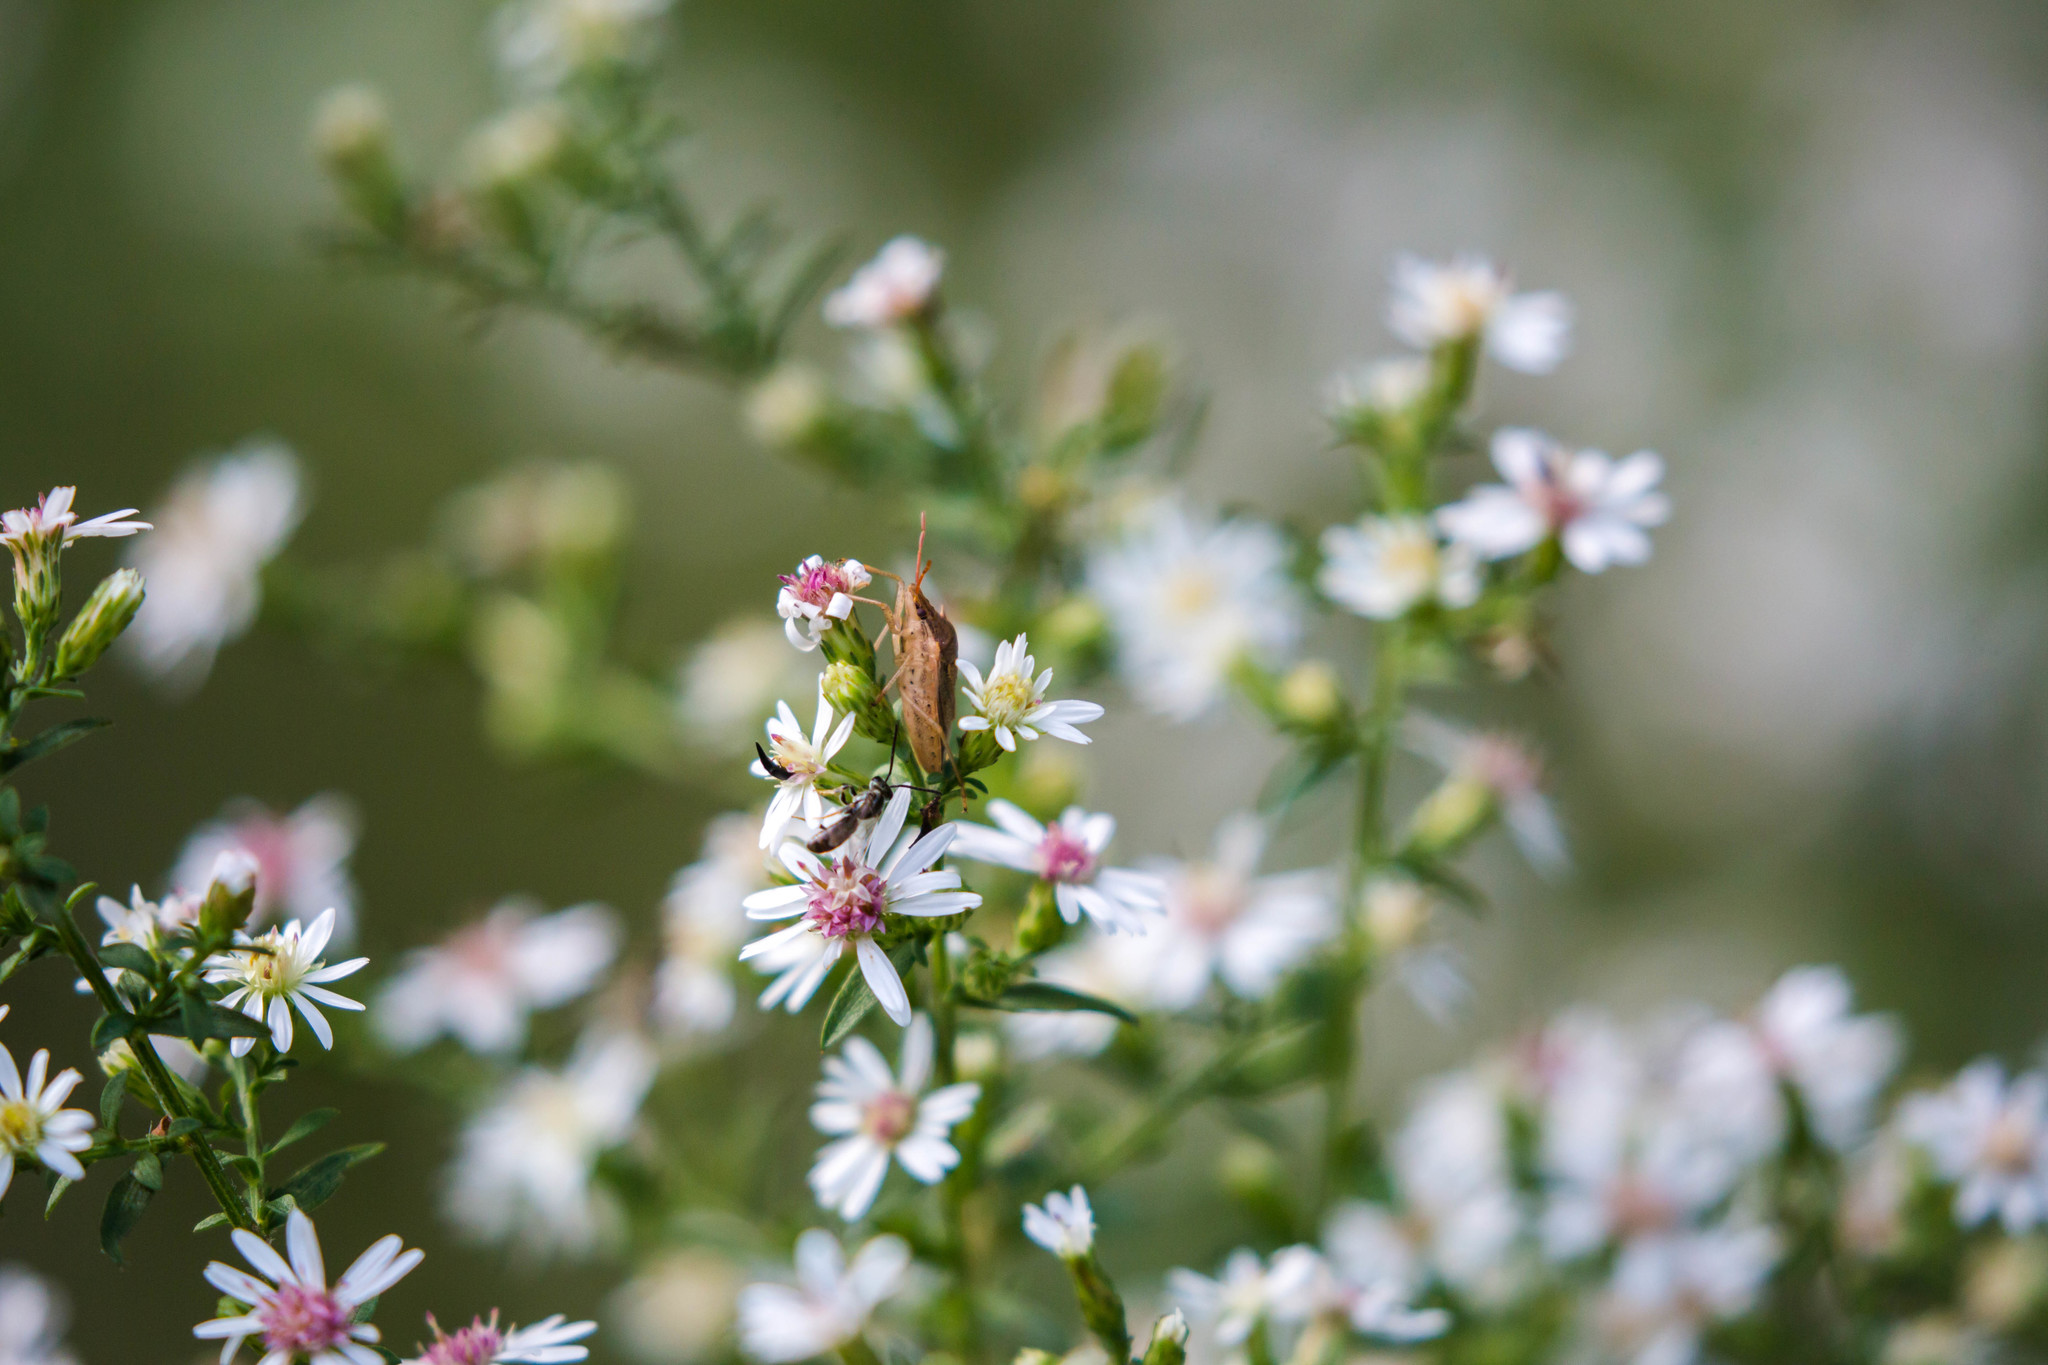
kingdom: Animalia
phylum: Arthropoda
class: Insecta
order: Hemiptera
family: Pentatomidae
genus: Oebalus
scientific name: Oebalus pugnax
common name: Rice stink bug
